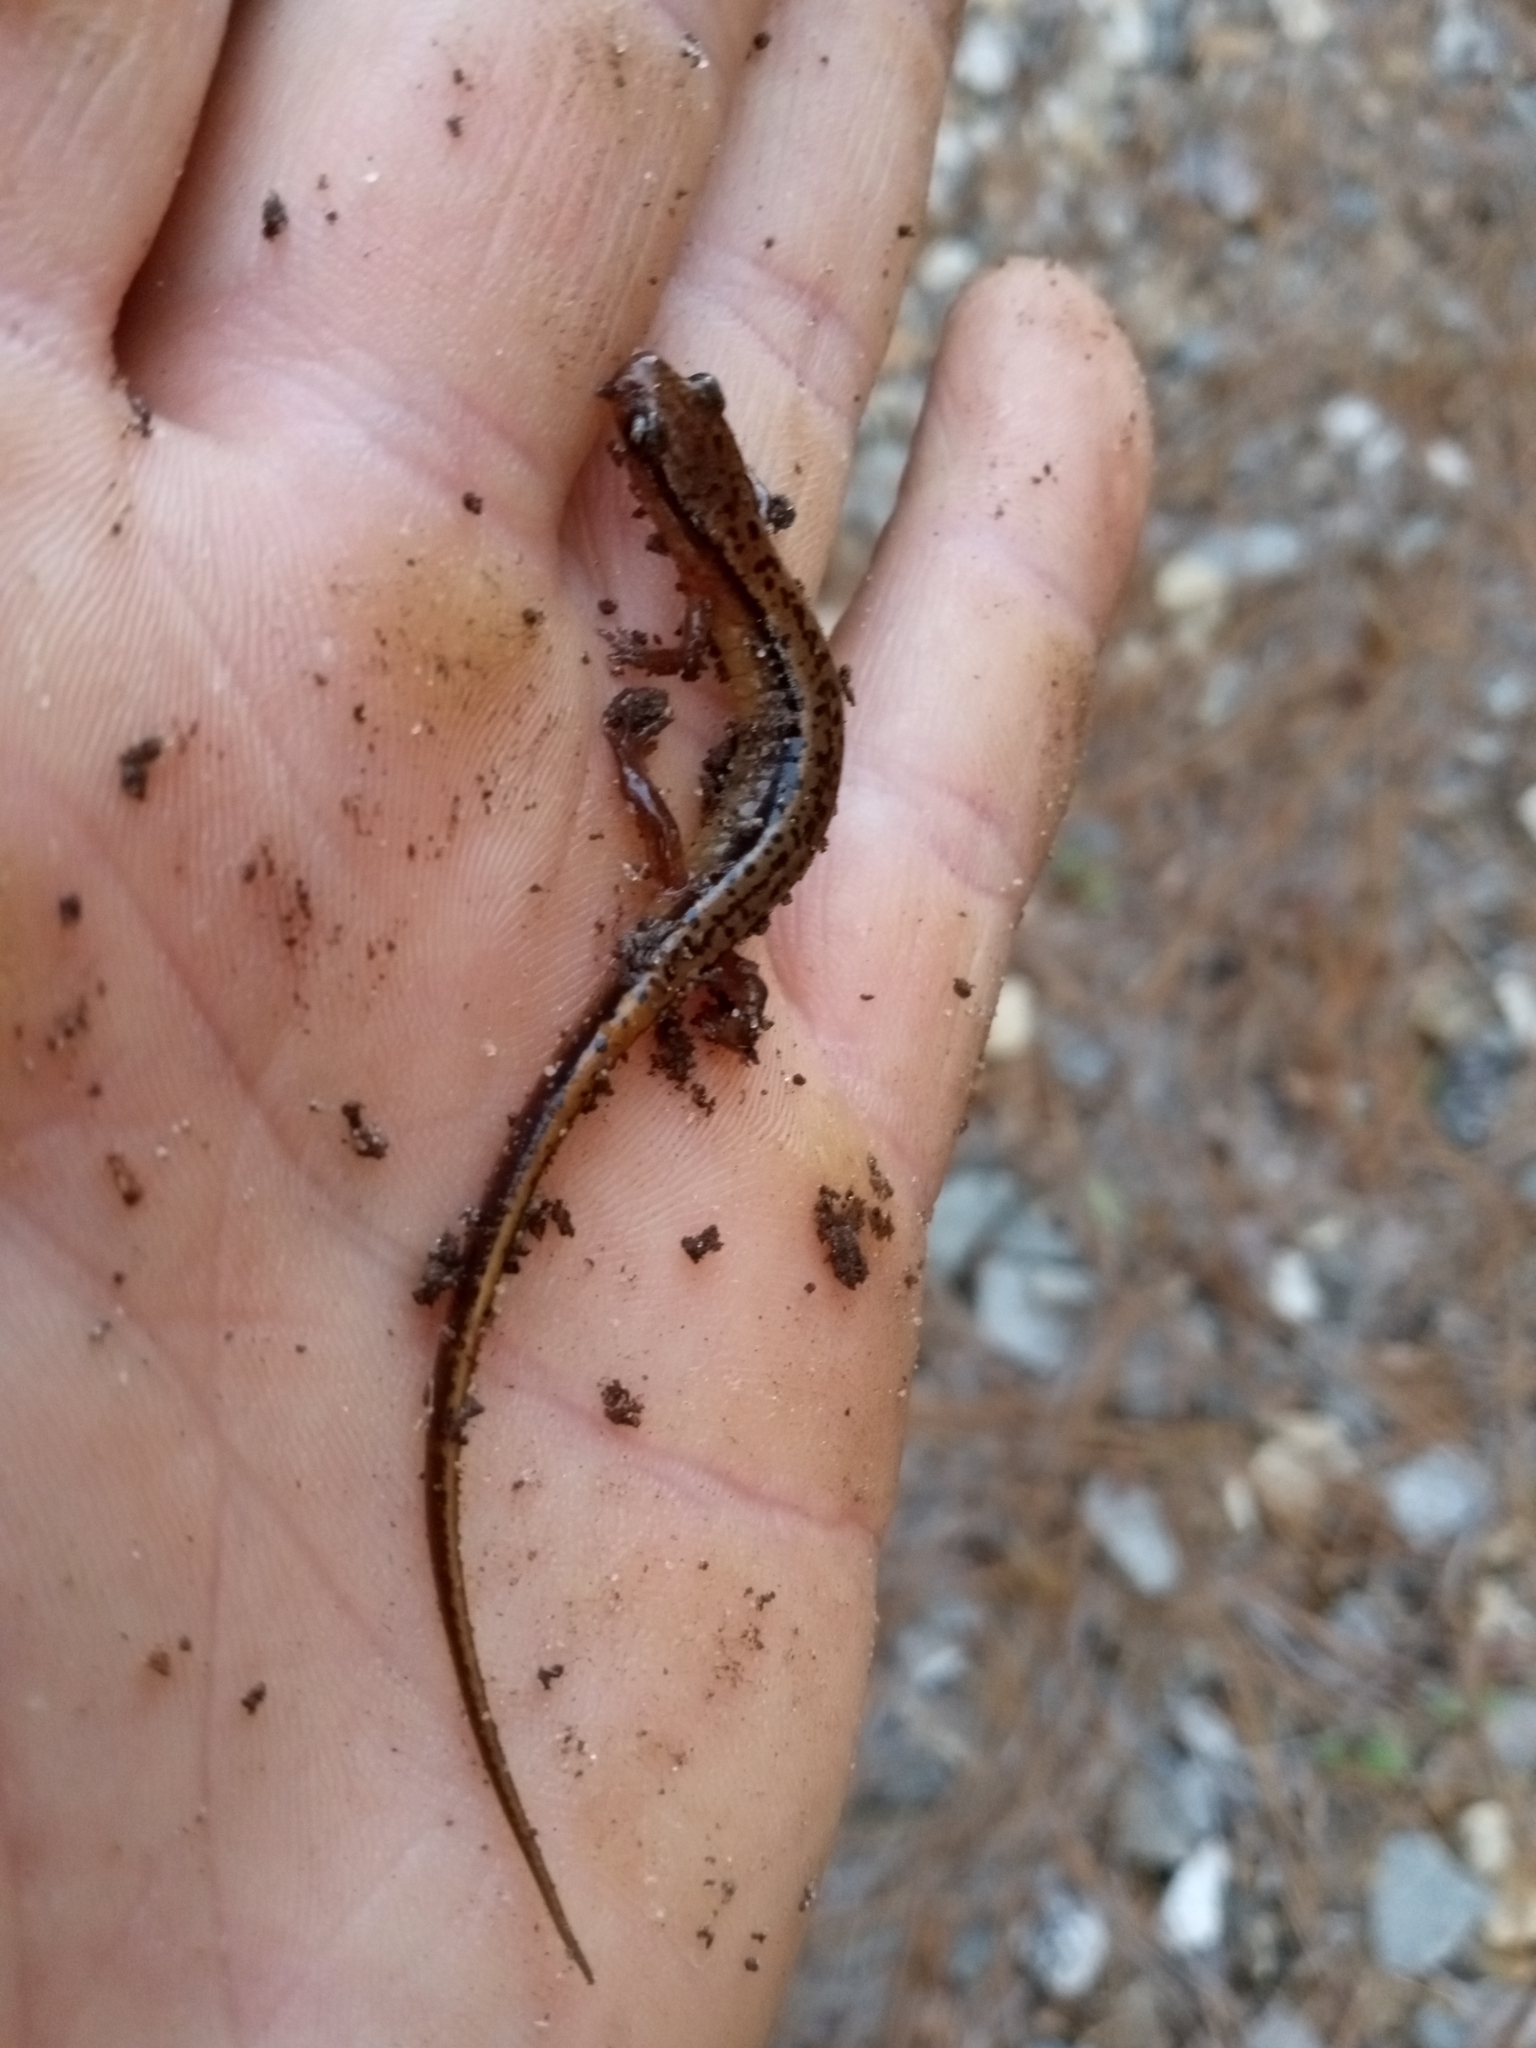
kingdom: Animalia
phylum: Chordata
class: Amphibia
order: Caudata
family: Plethodontidae
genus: Eurycea
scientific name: Eurycea cirrigera
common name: Southern two-lined salamander
